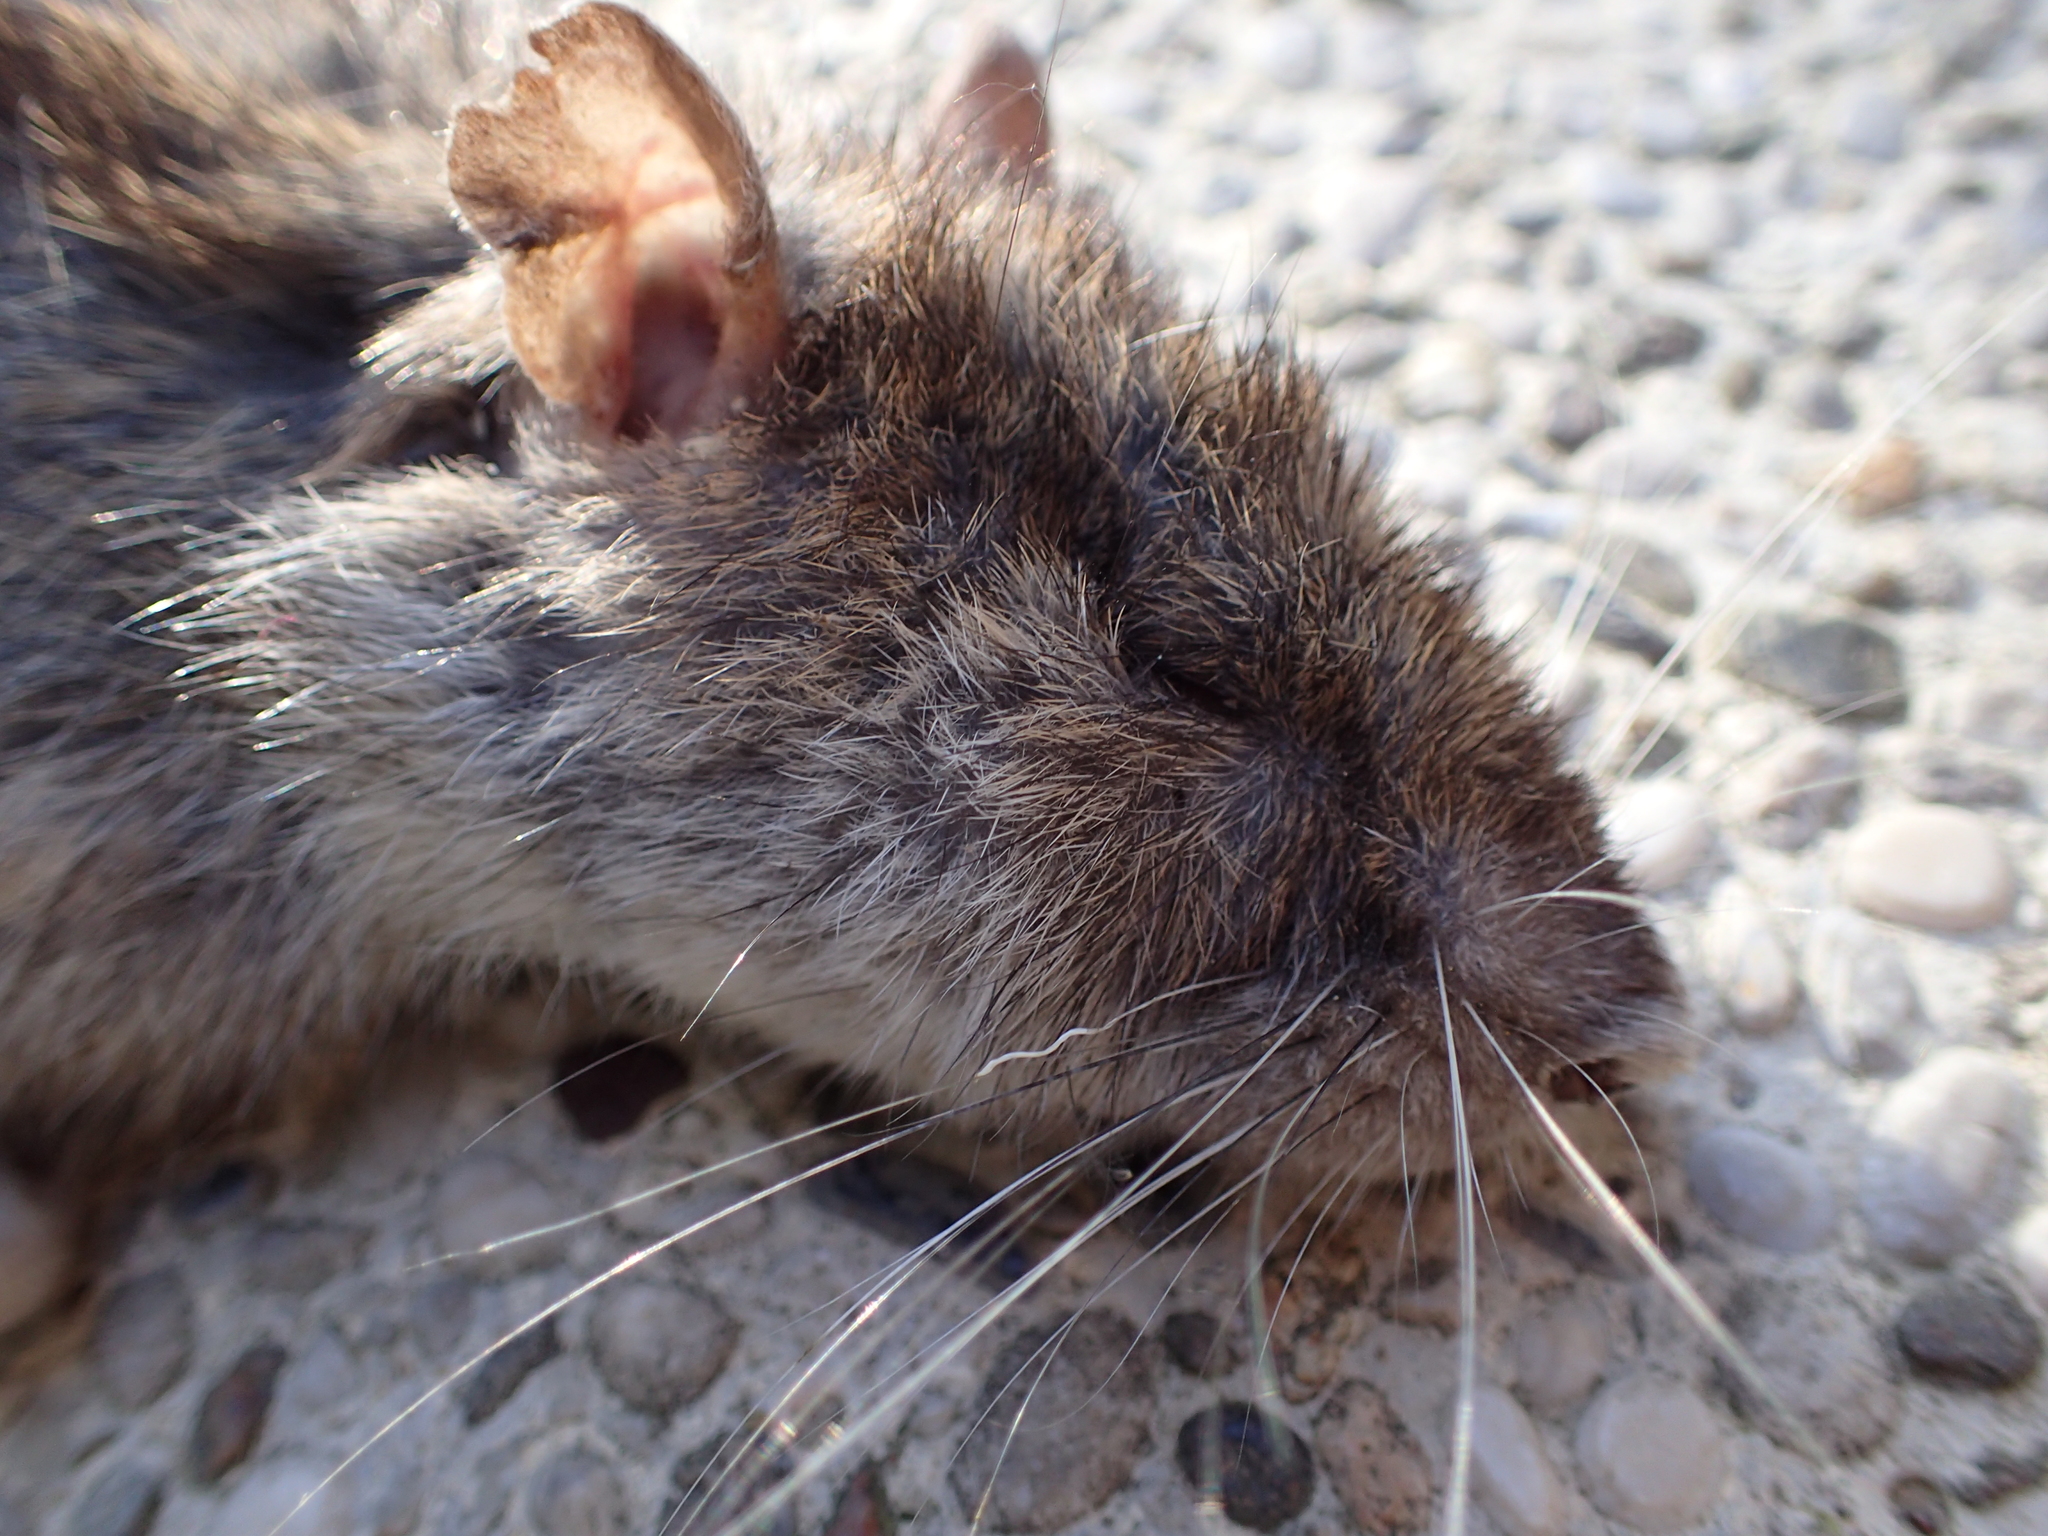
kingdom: Animalia
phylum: Chordata
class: Mammalia
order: Rodentia
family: Muridae
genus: Rattus
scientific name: Rattus norvegicus
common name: Brown rat
